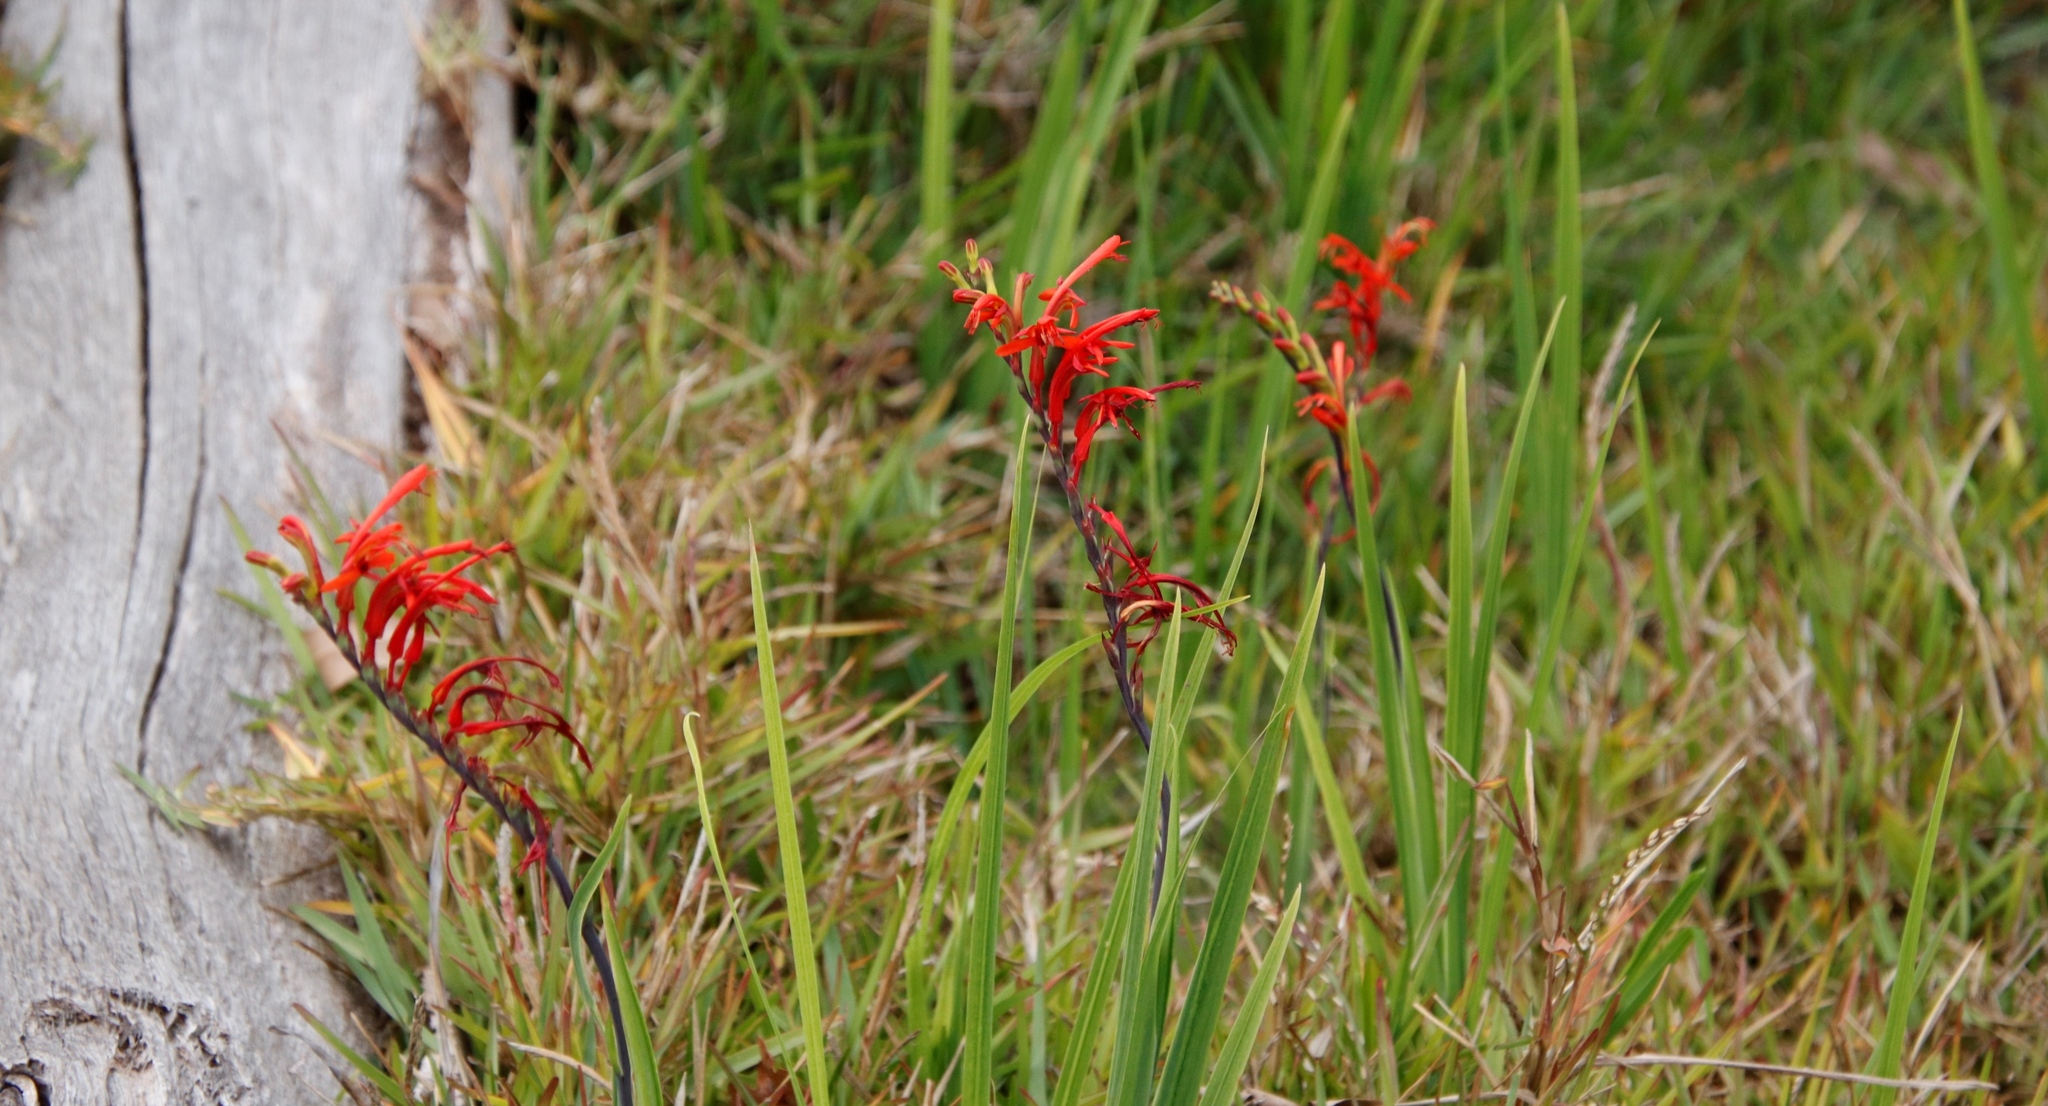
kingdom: Plantae
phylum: Tracheophyta
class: Liliopsida
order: Asparagales
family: Iridaceae
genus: Chasmanthe
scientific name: Chasmanthe aethiopica
